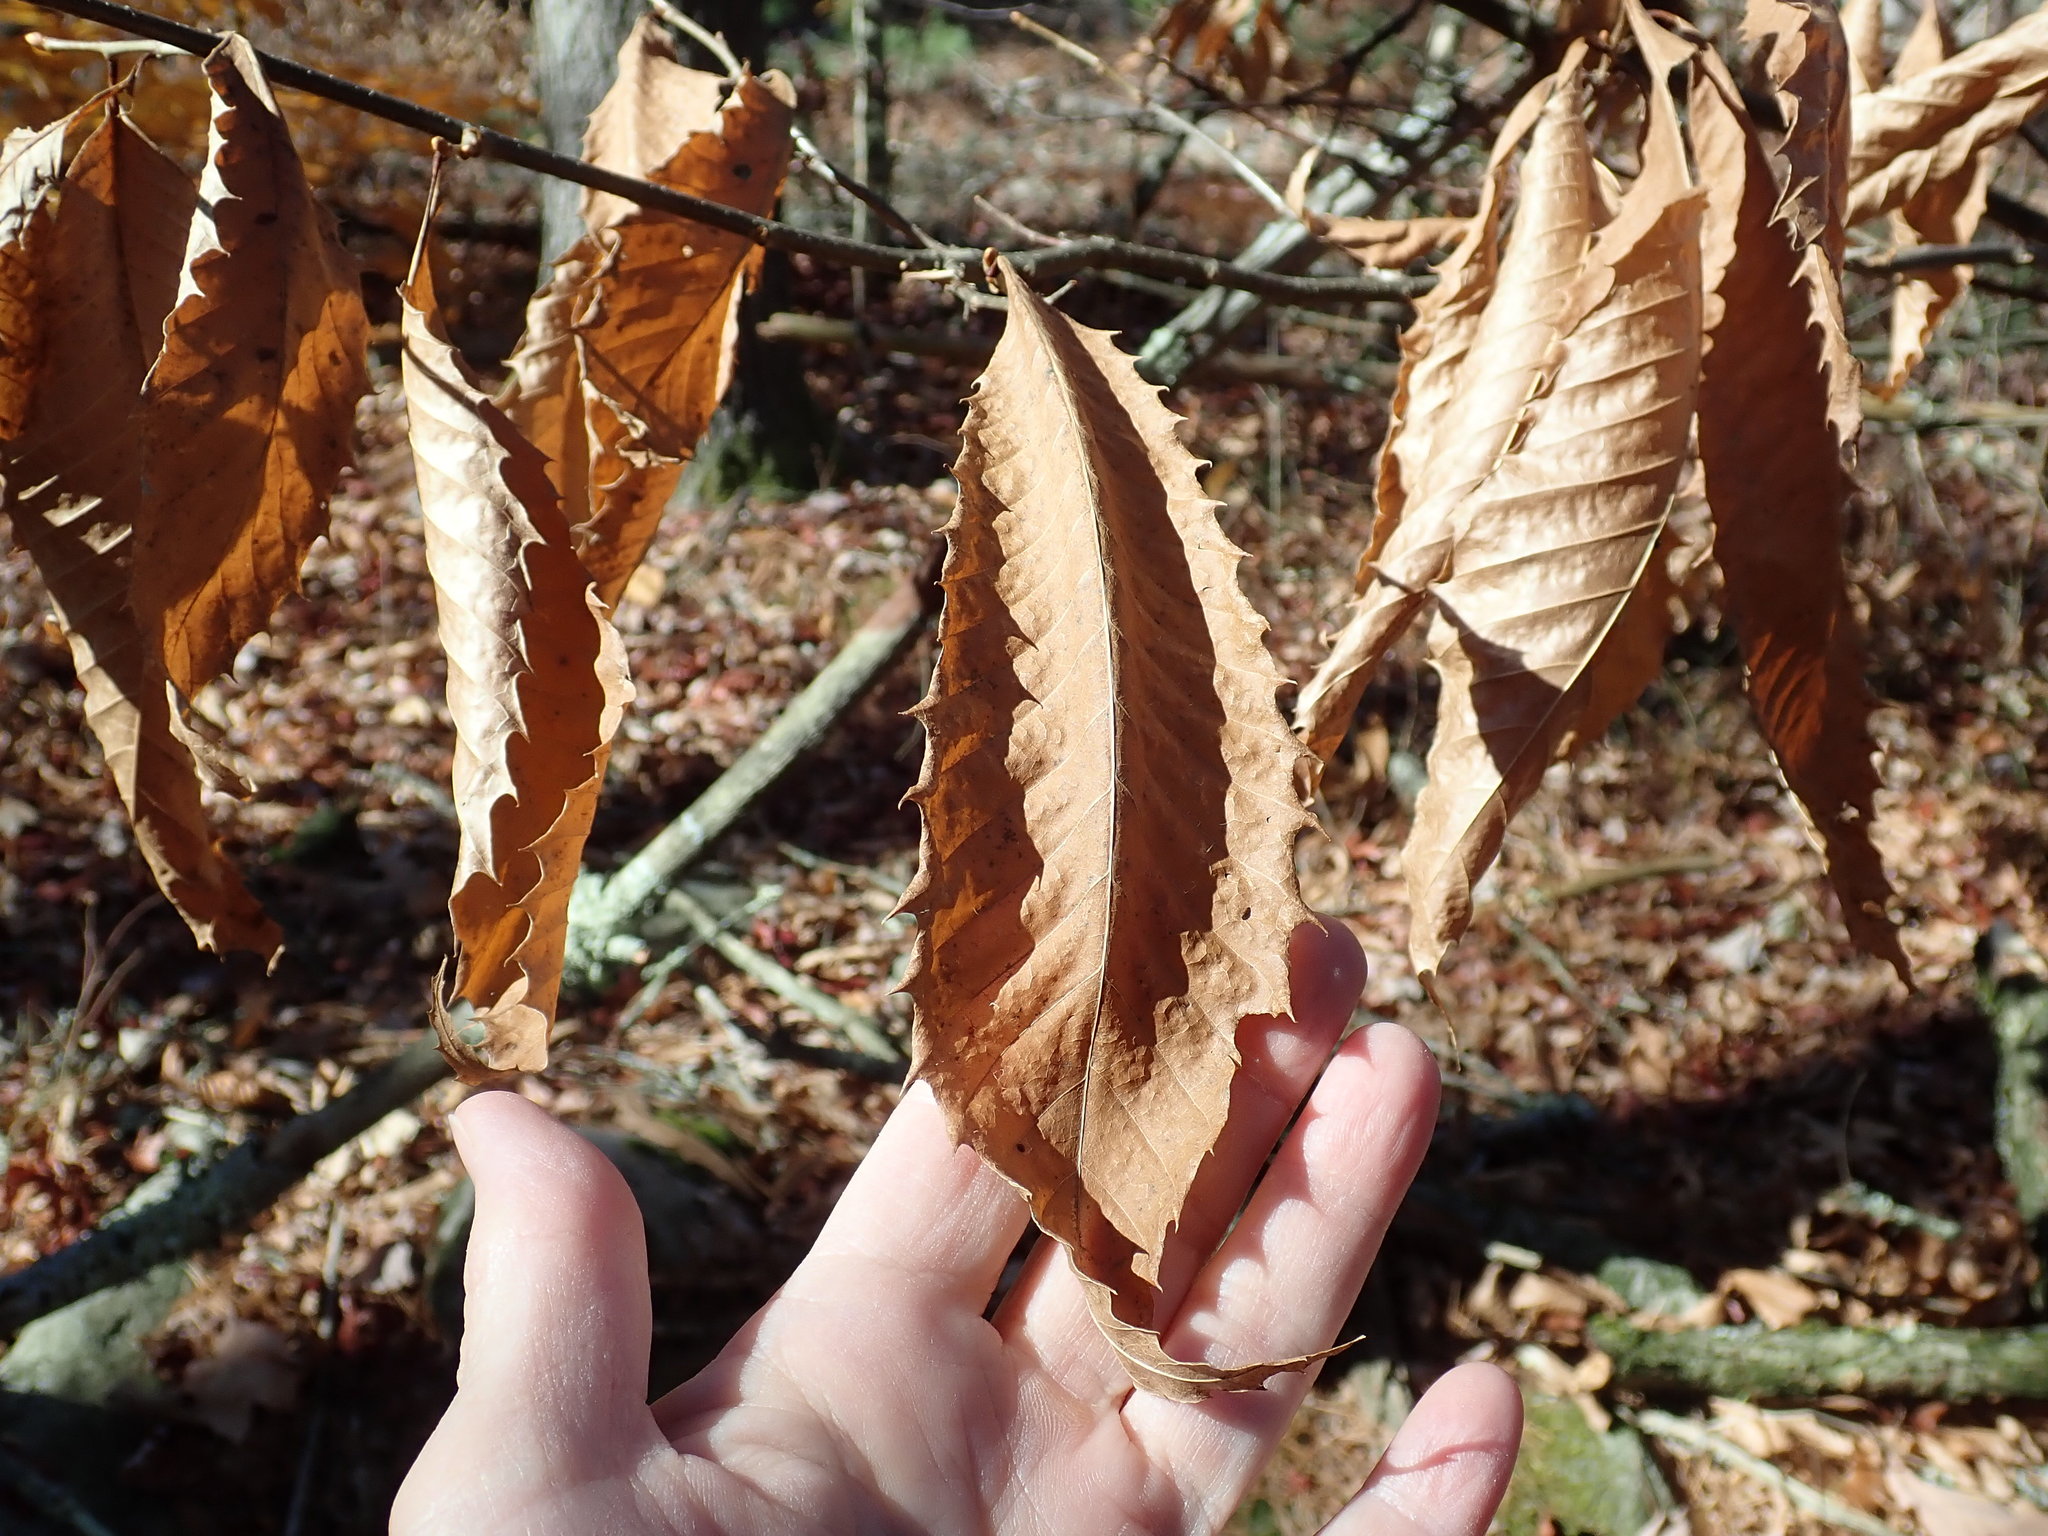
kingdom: Plantae
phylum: Tracheophyta
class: Magnoliopsida
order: Fagales
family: Fagaceae
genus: Castanea
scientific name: Castanea dentata
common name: American chestnut
